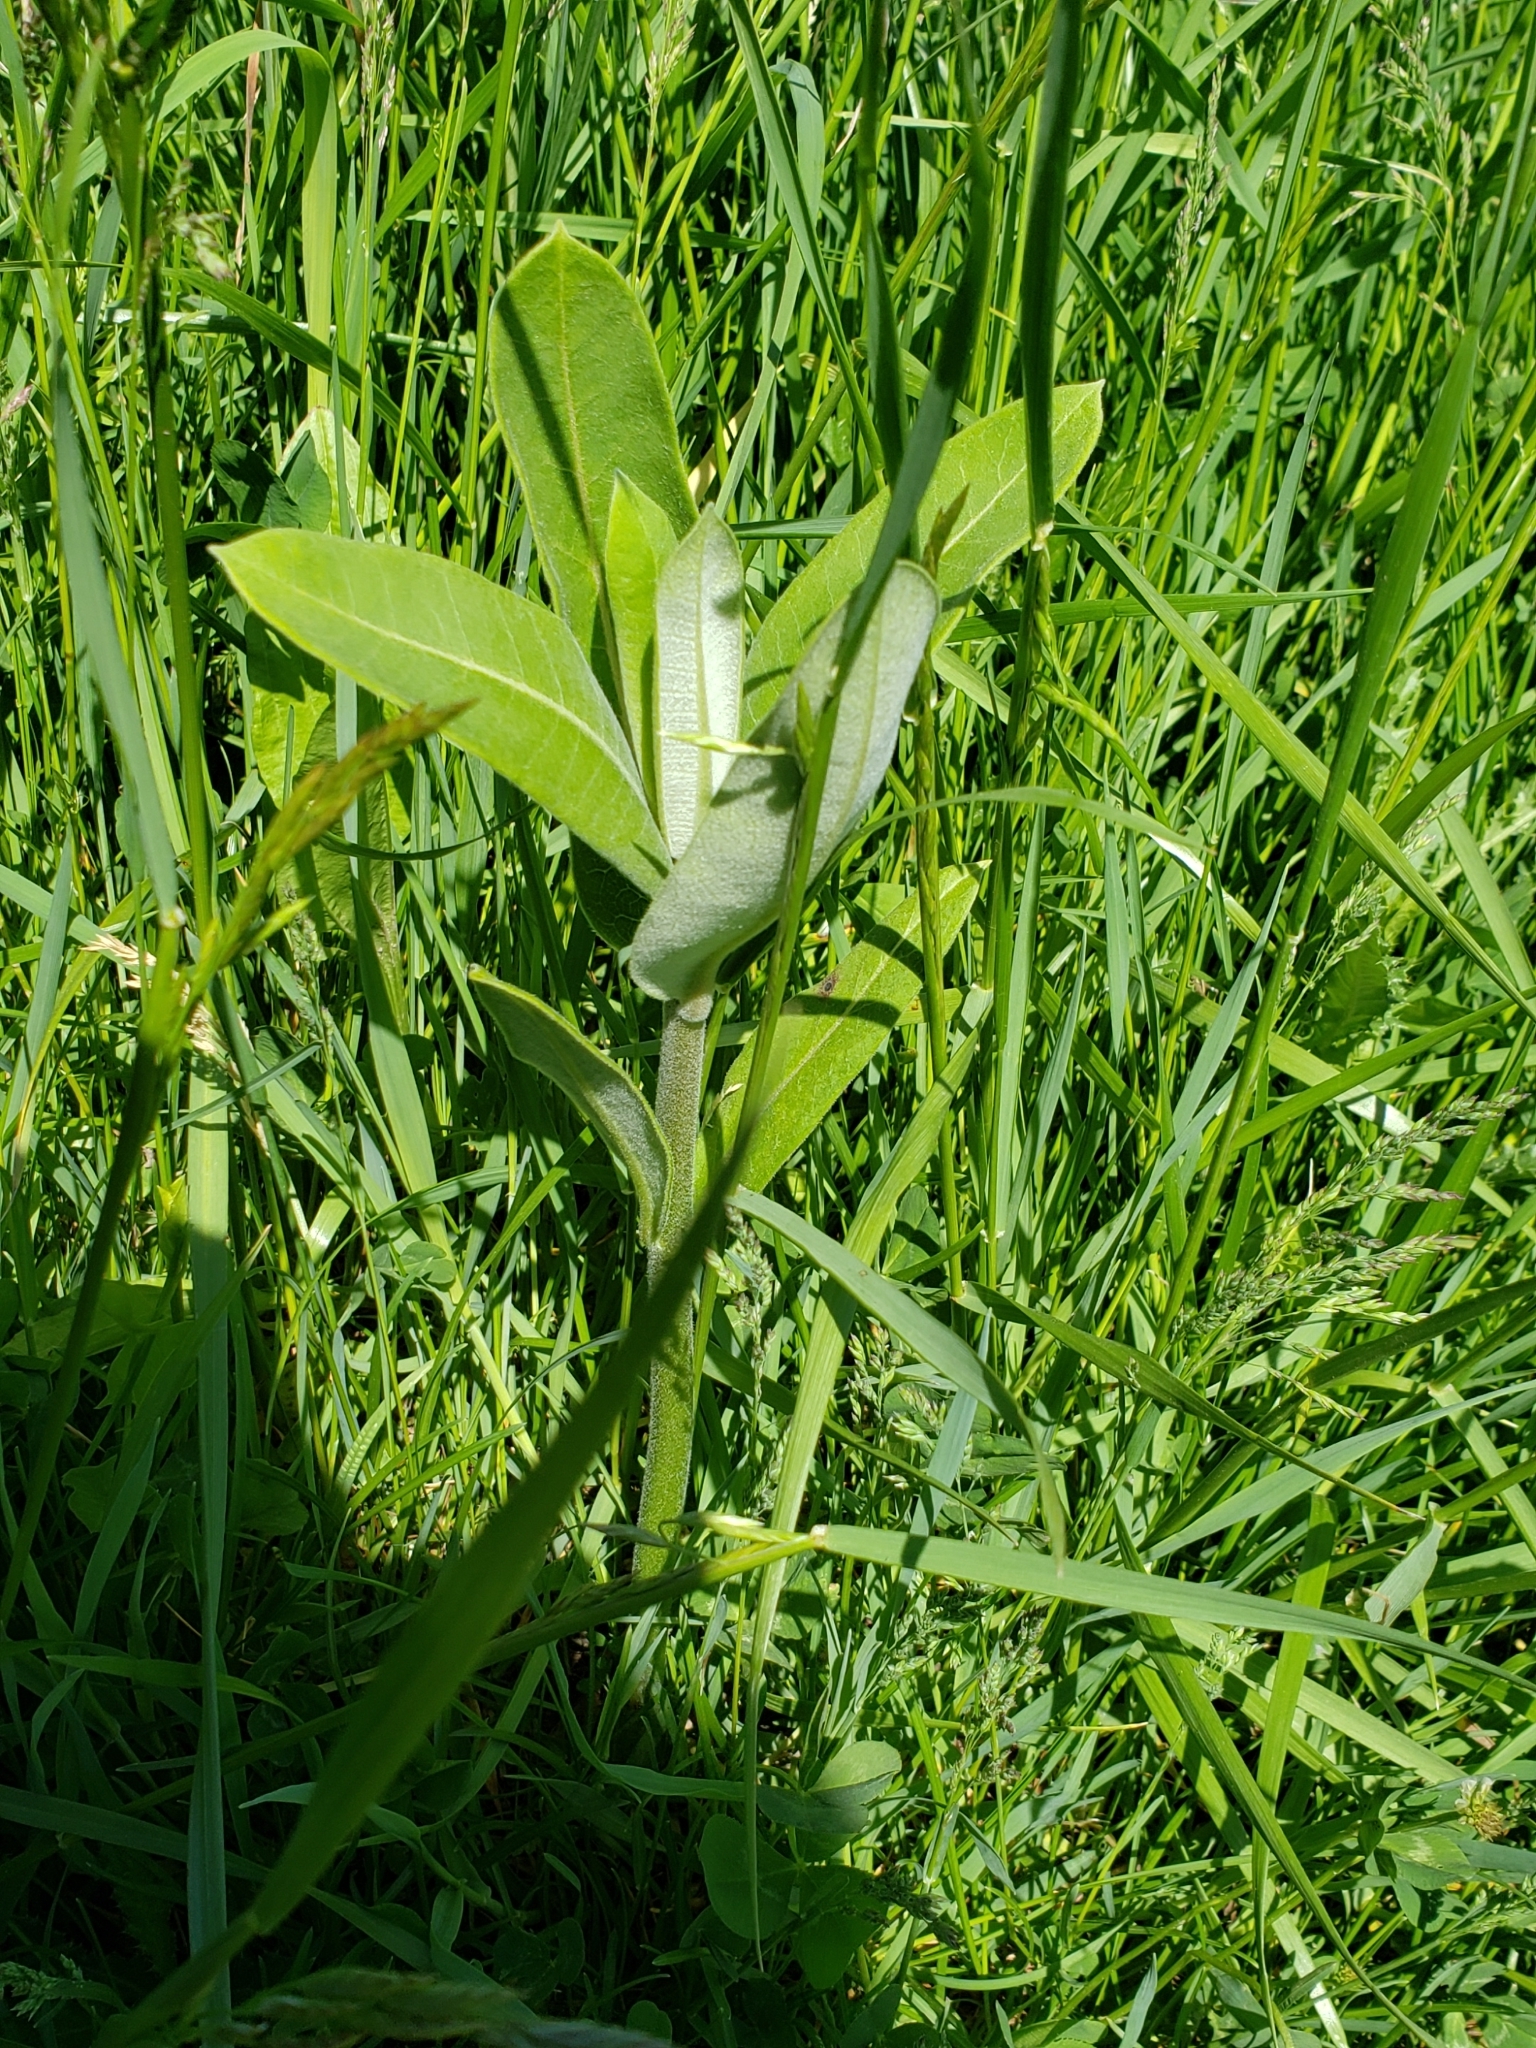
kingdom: Plantae
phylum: Tracheophyta
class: Magnoliopsida
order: Gentianales
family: Apocynaceae
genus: Asclepias
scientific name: Asclepias syriaca
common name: Common milkweed
